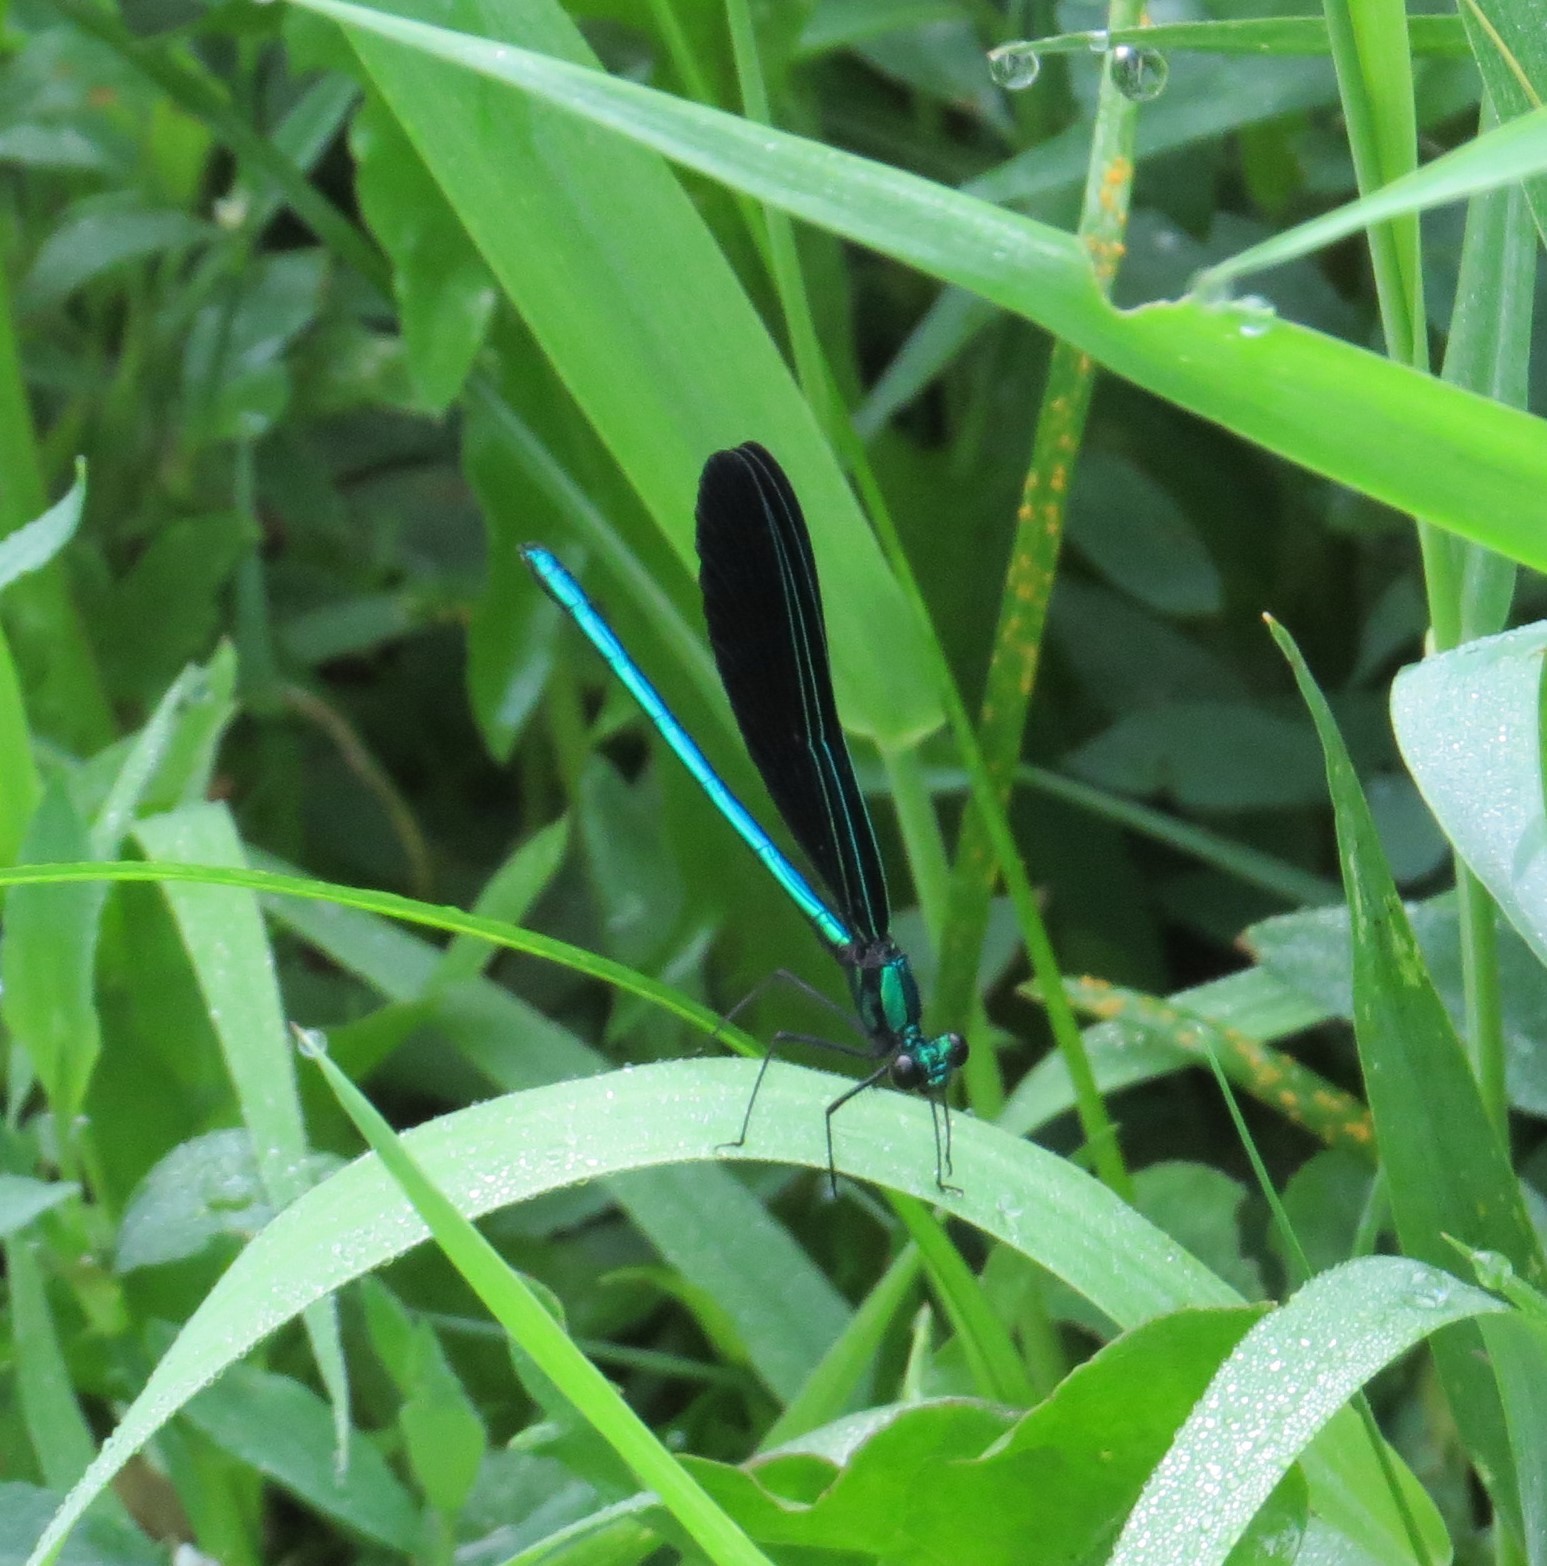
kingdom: Animalia
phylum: Arthropoda
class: Insecta
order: Odonata
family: Calopterygidae
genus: Calopteryx
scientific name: Calopteryx maculata
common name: Ebony jewelwing
